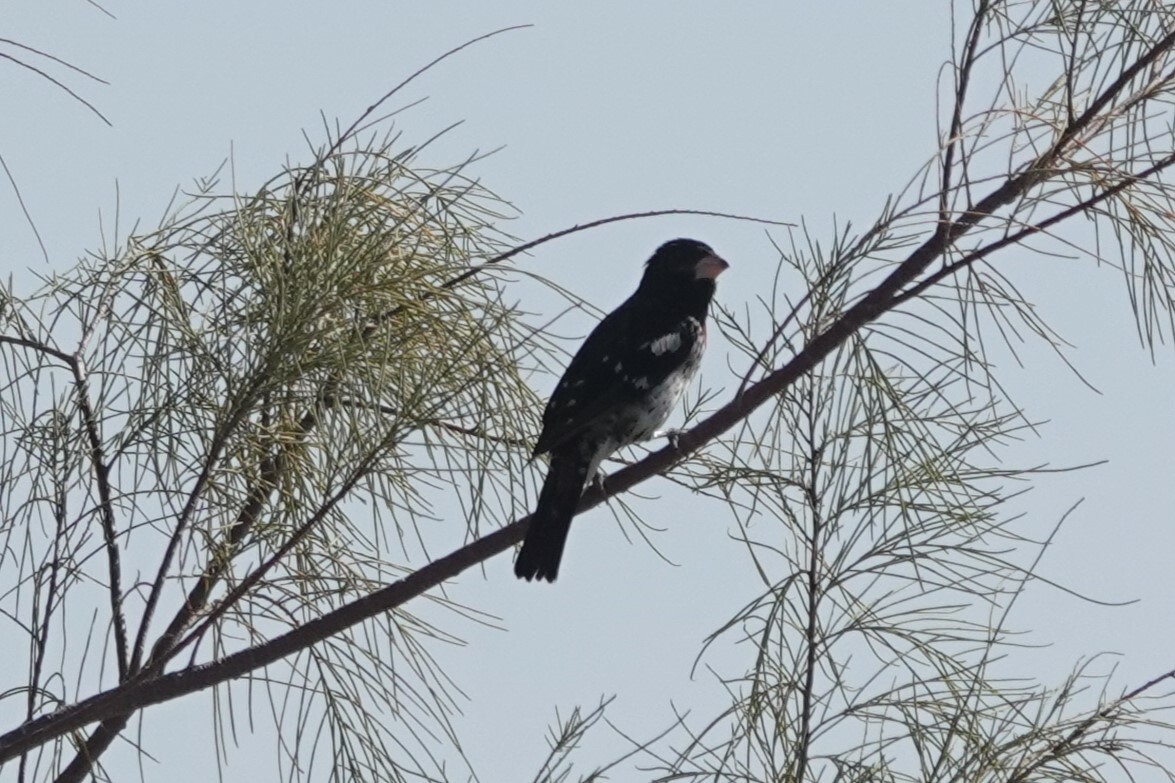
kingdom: Animalia
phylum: Chordata
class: Aves
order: Passeriformes
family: Cardinalidae
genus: Pheucticus
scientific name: Pheucticus ludovicianus
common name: Rose-breasted grosbeak
